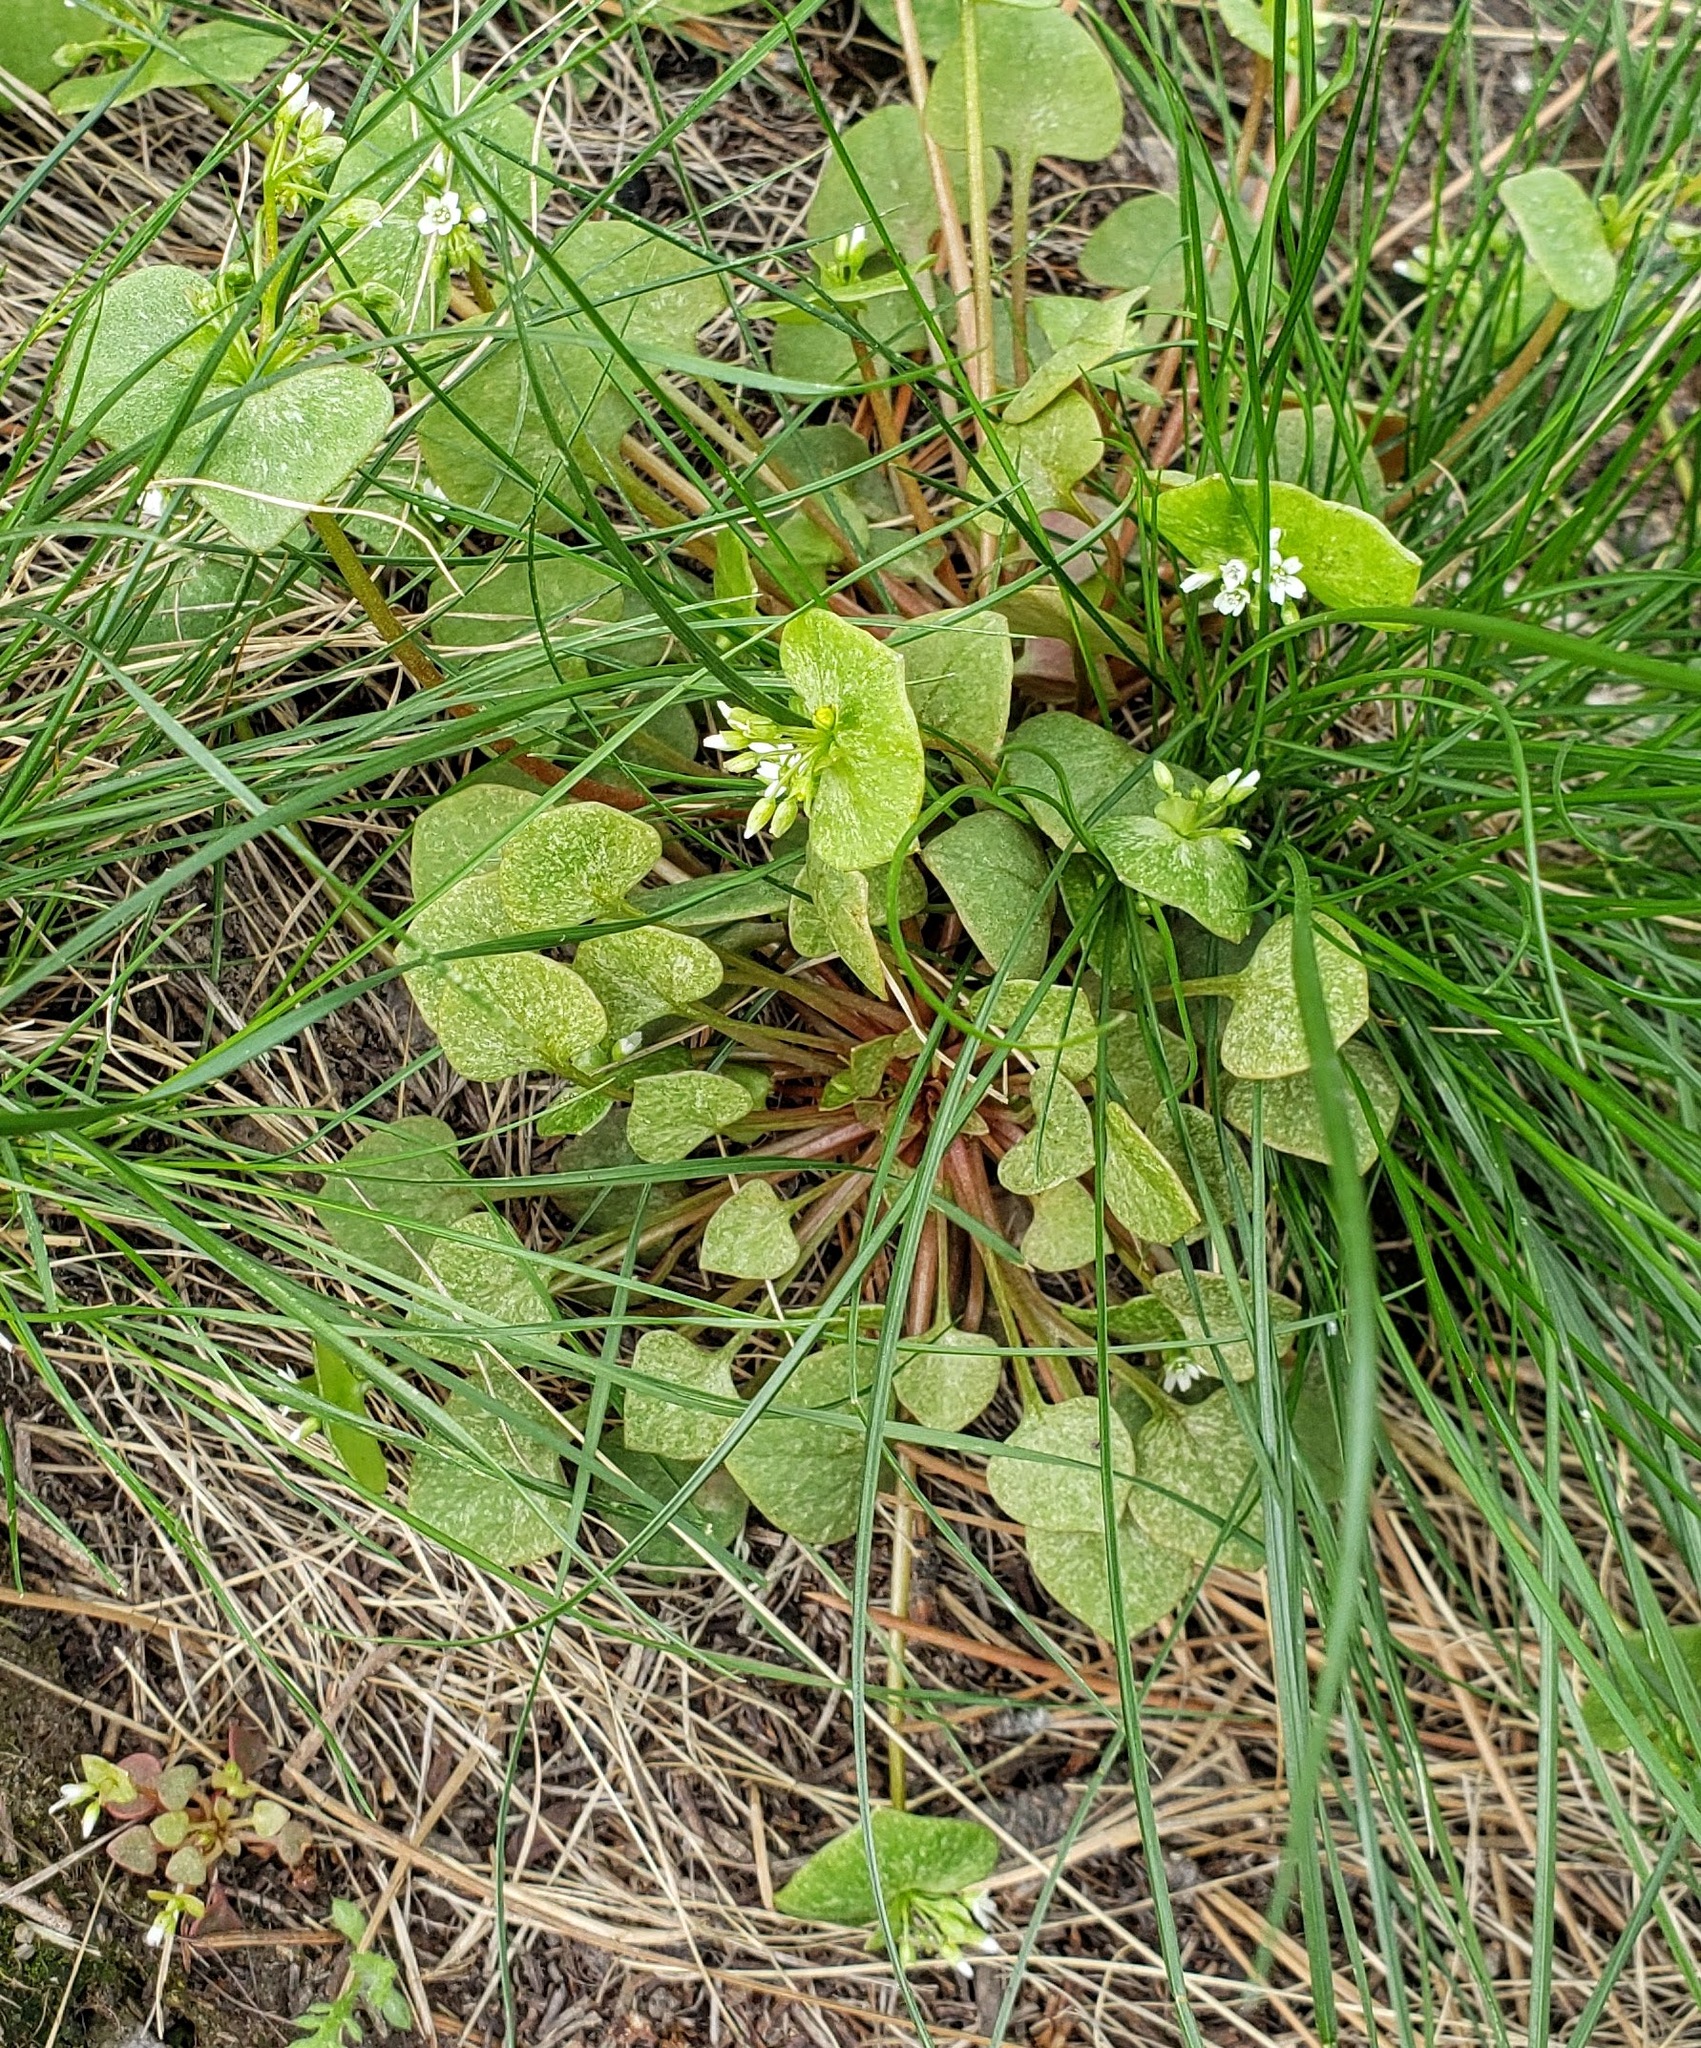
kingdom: Plantae
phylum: Tracheophyta
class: Magnoliopsida
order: Caryophyllales
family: Montiaceae
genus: Claytonia
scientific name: Claytonia rubra
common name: Erubescent miner's-lettuce
